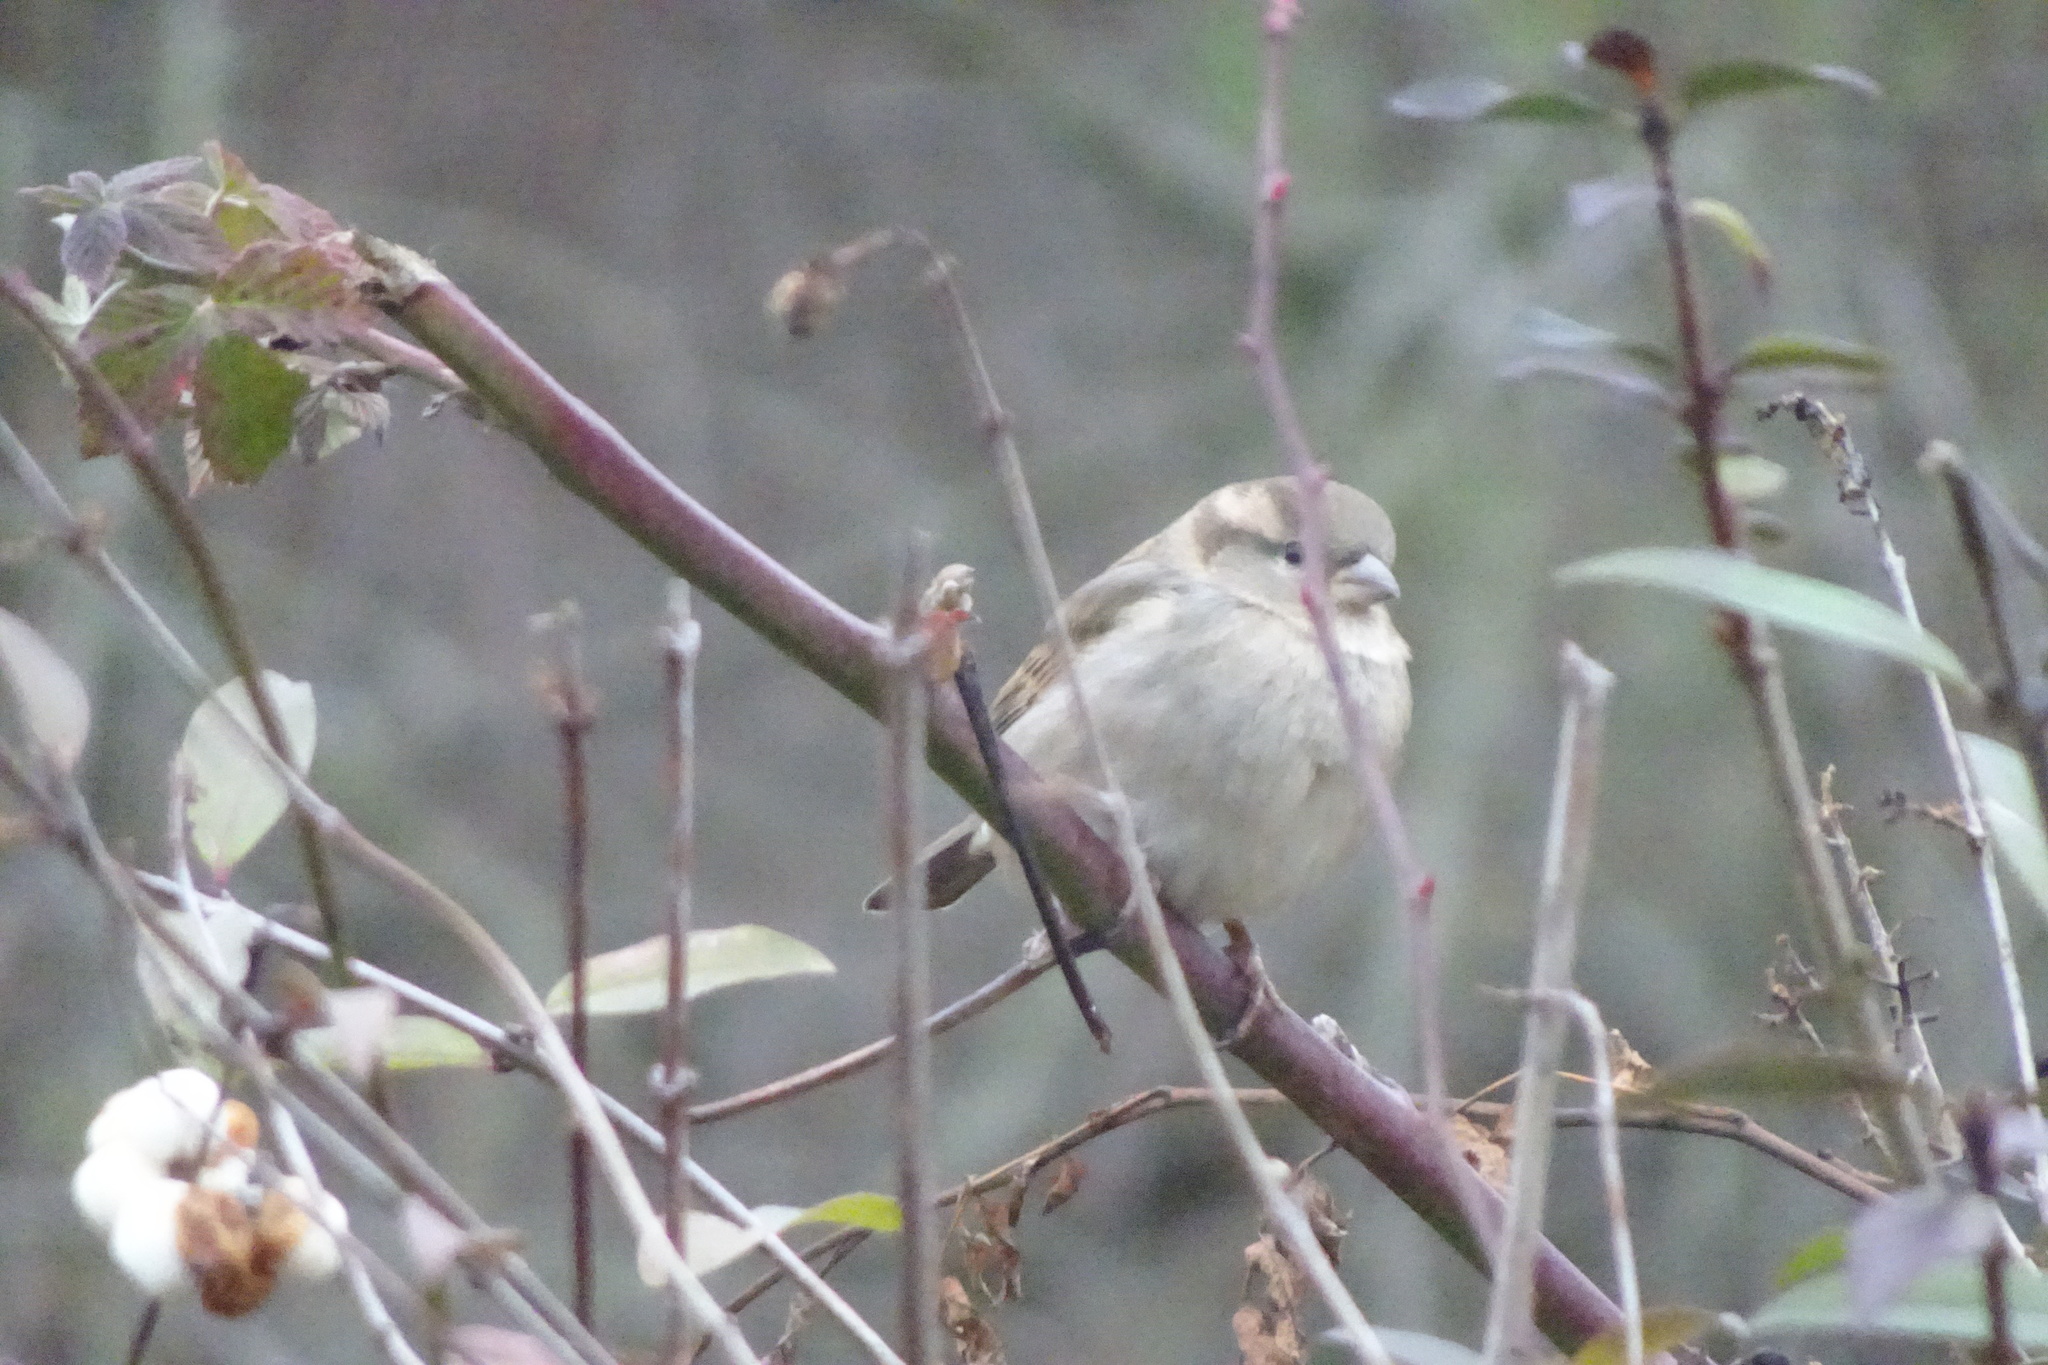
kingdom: Animalia
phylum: Chordata
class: Aves
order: Passeriformes
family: Passeridae
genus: Passer
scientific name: Passer domesticus
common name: House sparrow
